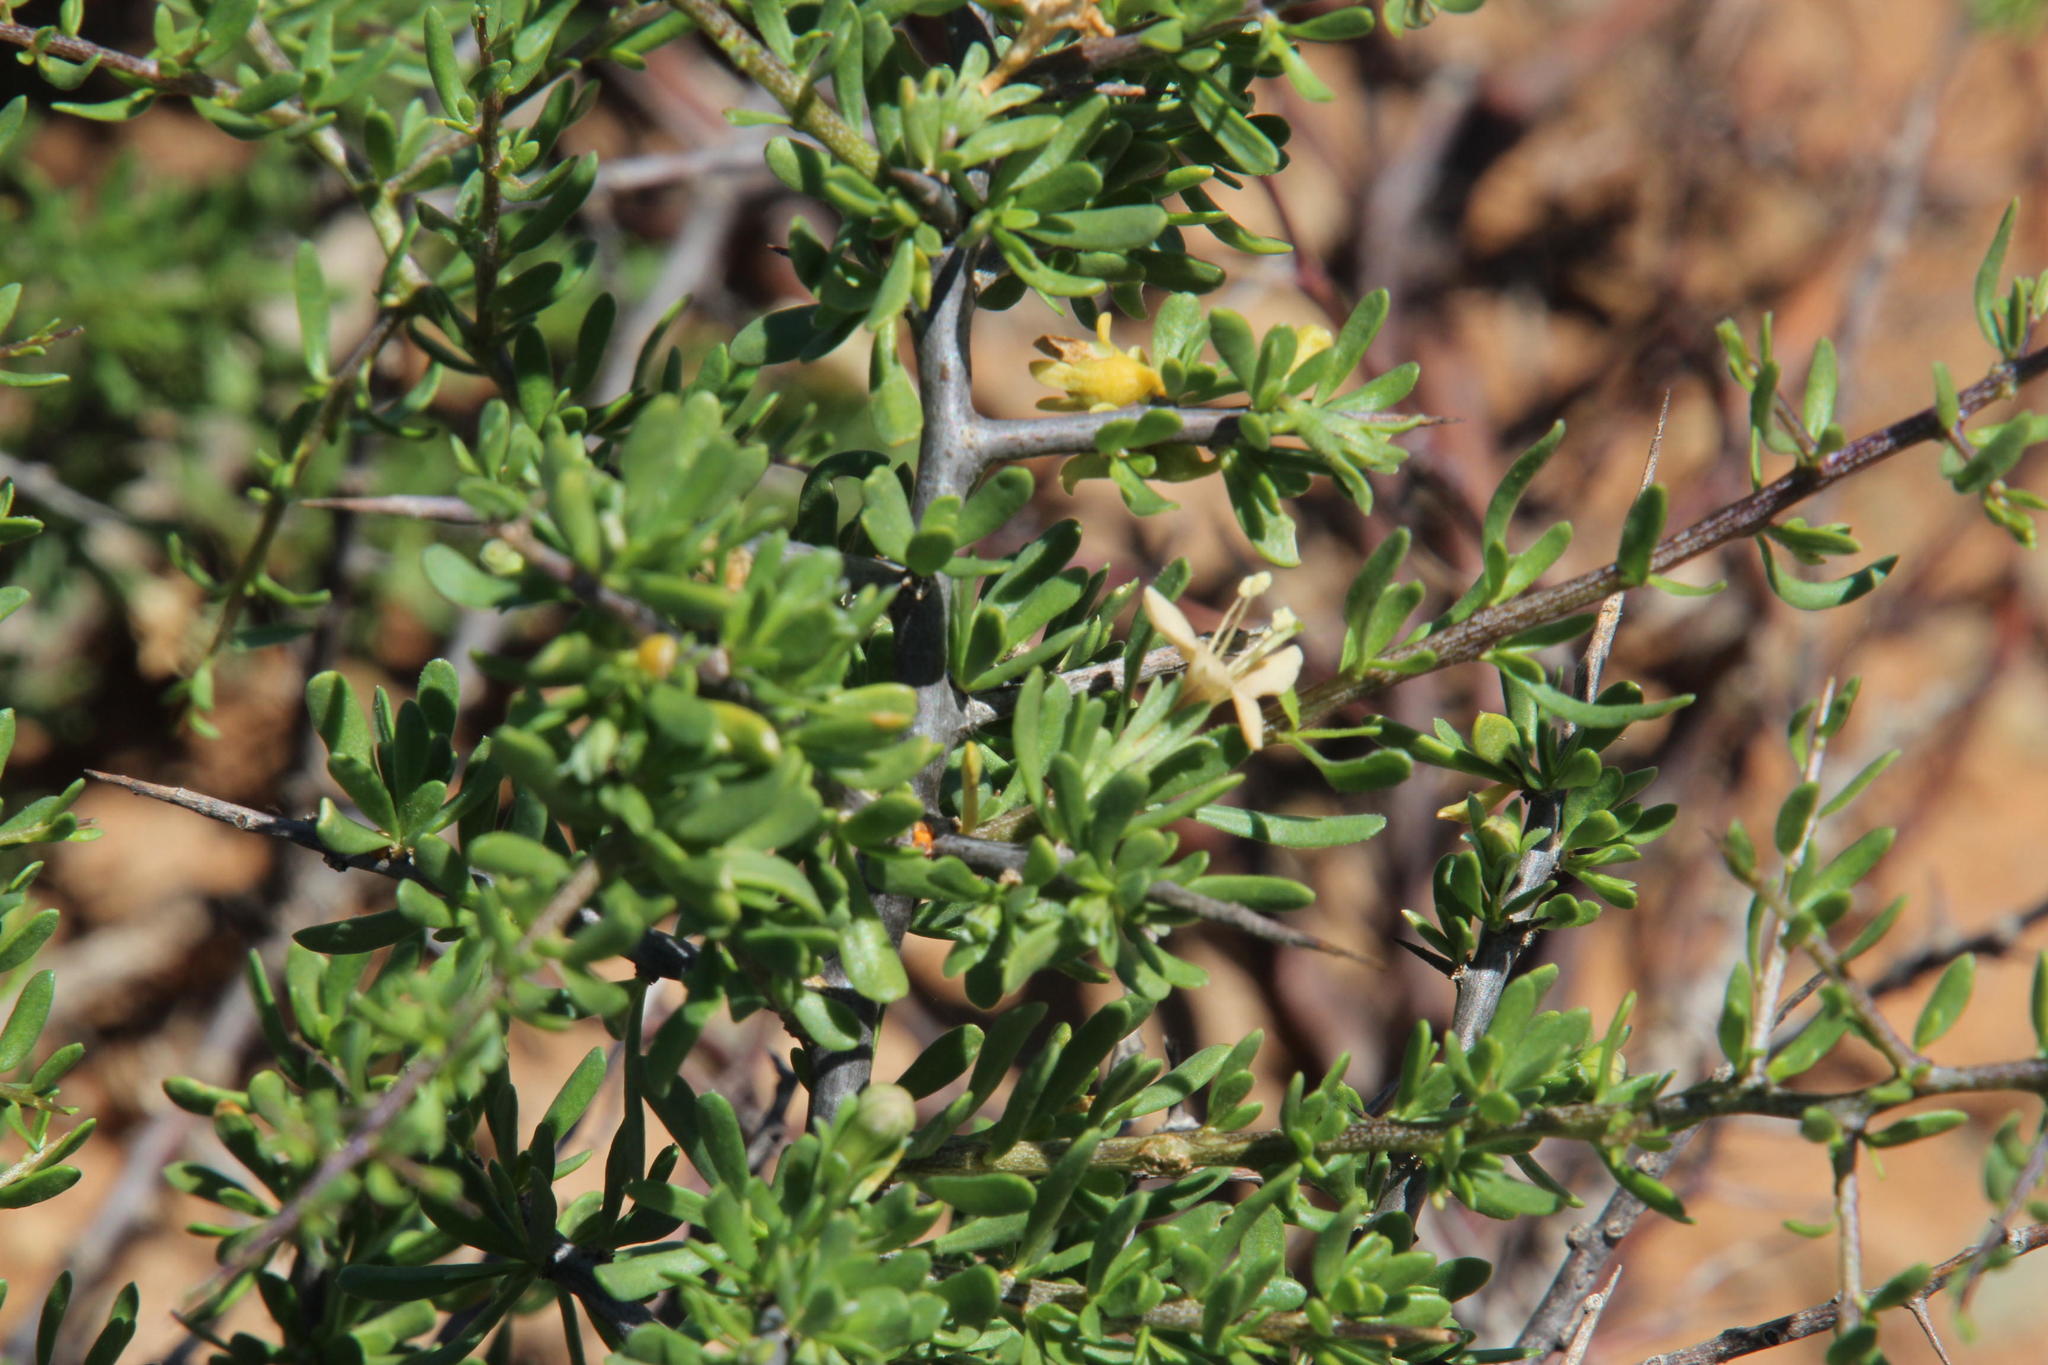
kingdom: Plantae
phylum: Tracheophyta
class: Magnoliopsida
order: Solanales
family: Solanaceae
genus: Lycium
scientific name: Lycium schizocalyx
